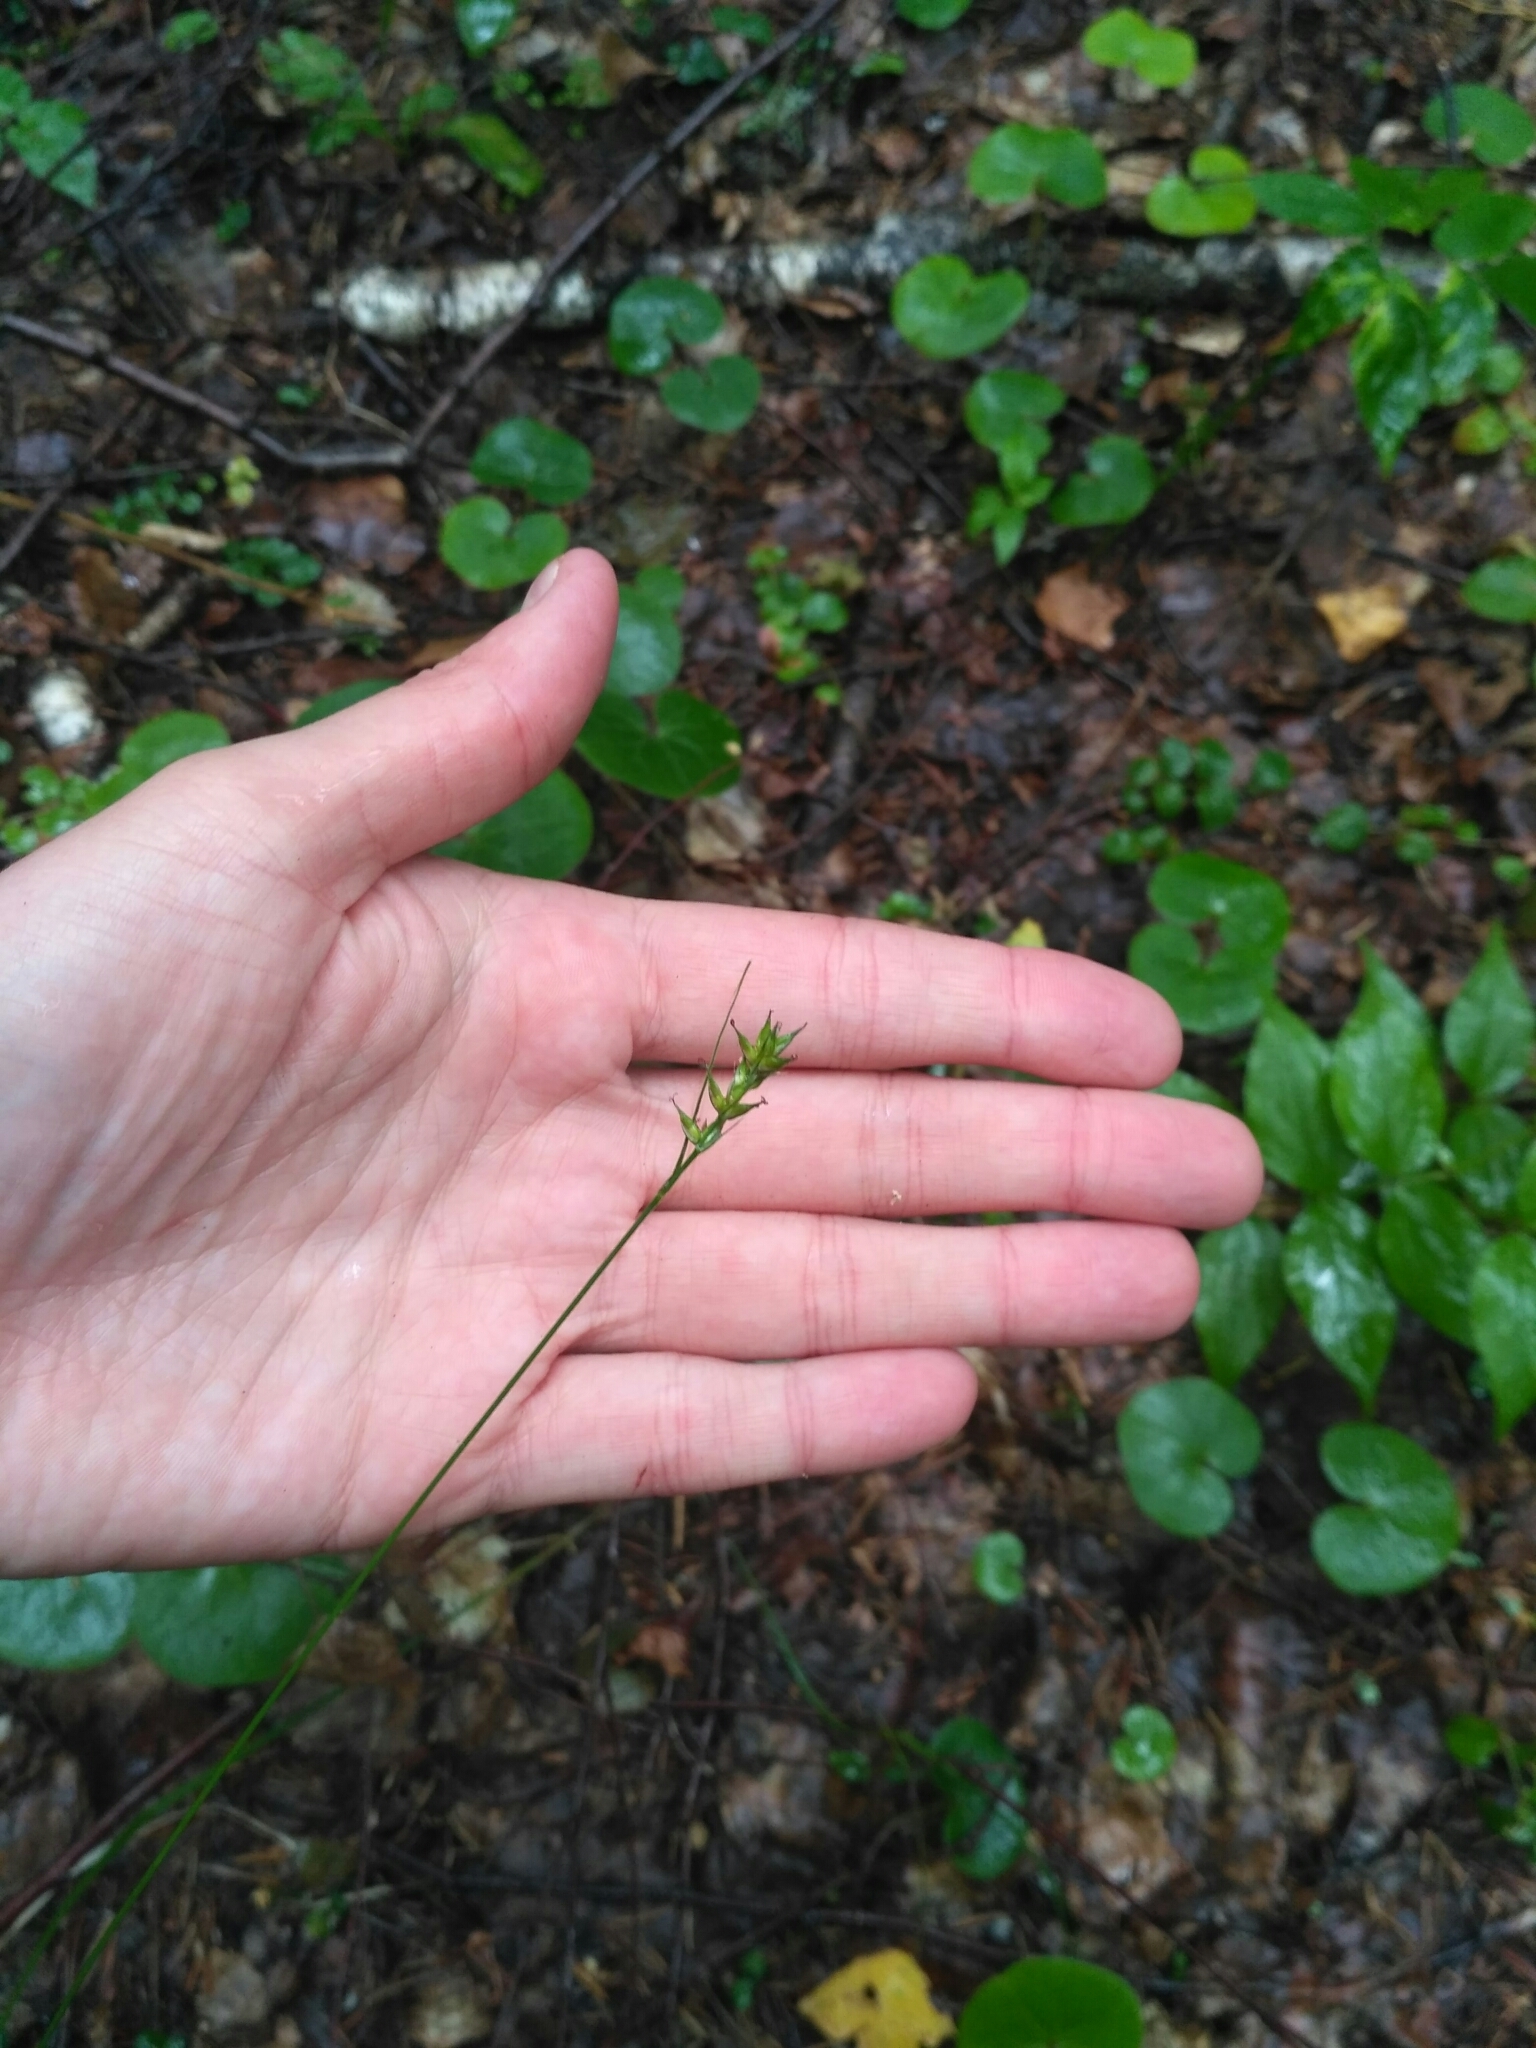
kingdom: Plantae
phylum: Tracheophyta
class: Liliopsida
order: Poales
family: Cyperaceae
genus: Carex
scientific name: Carex spicata
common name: Spiked sedge
